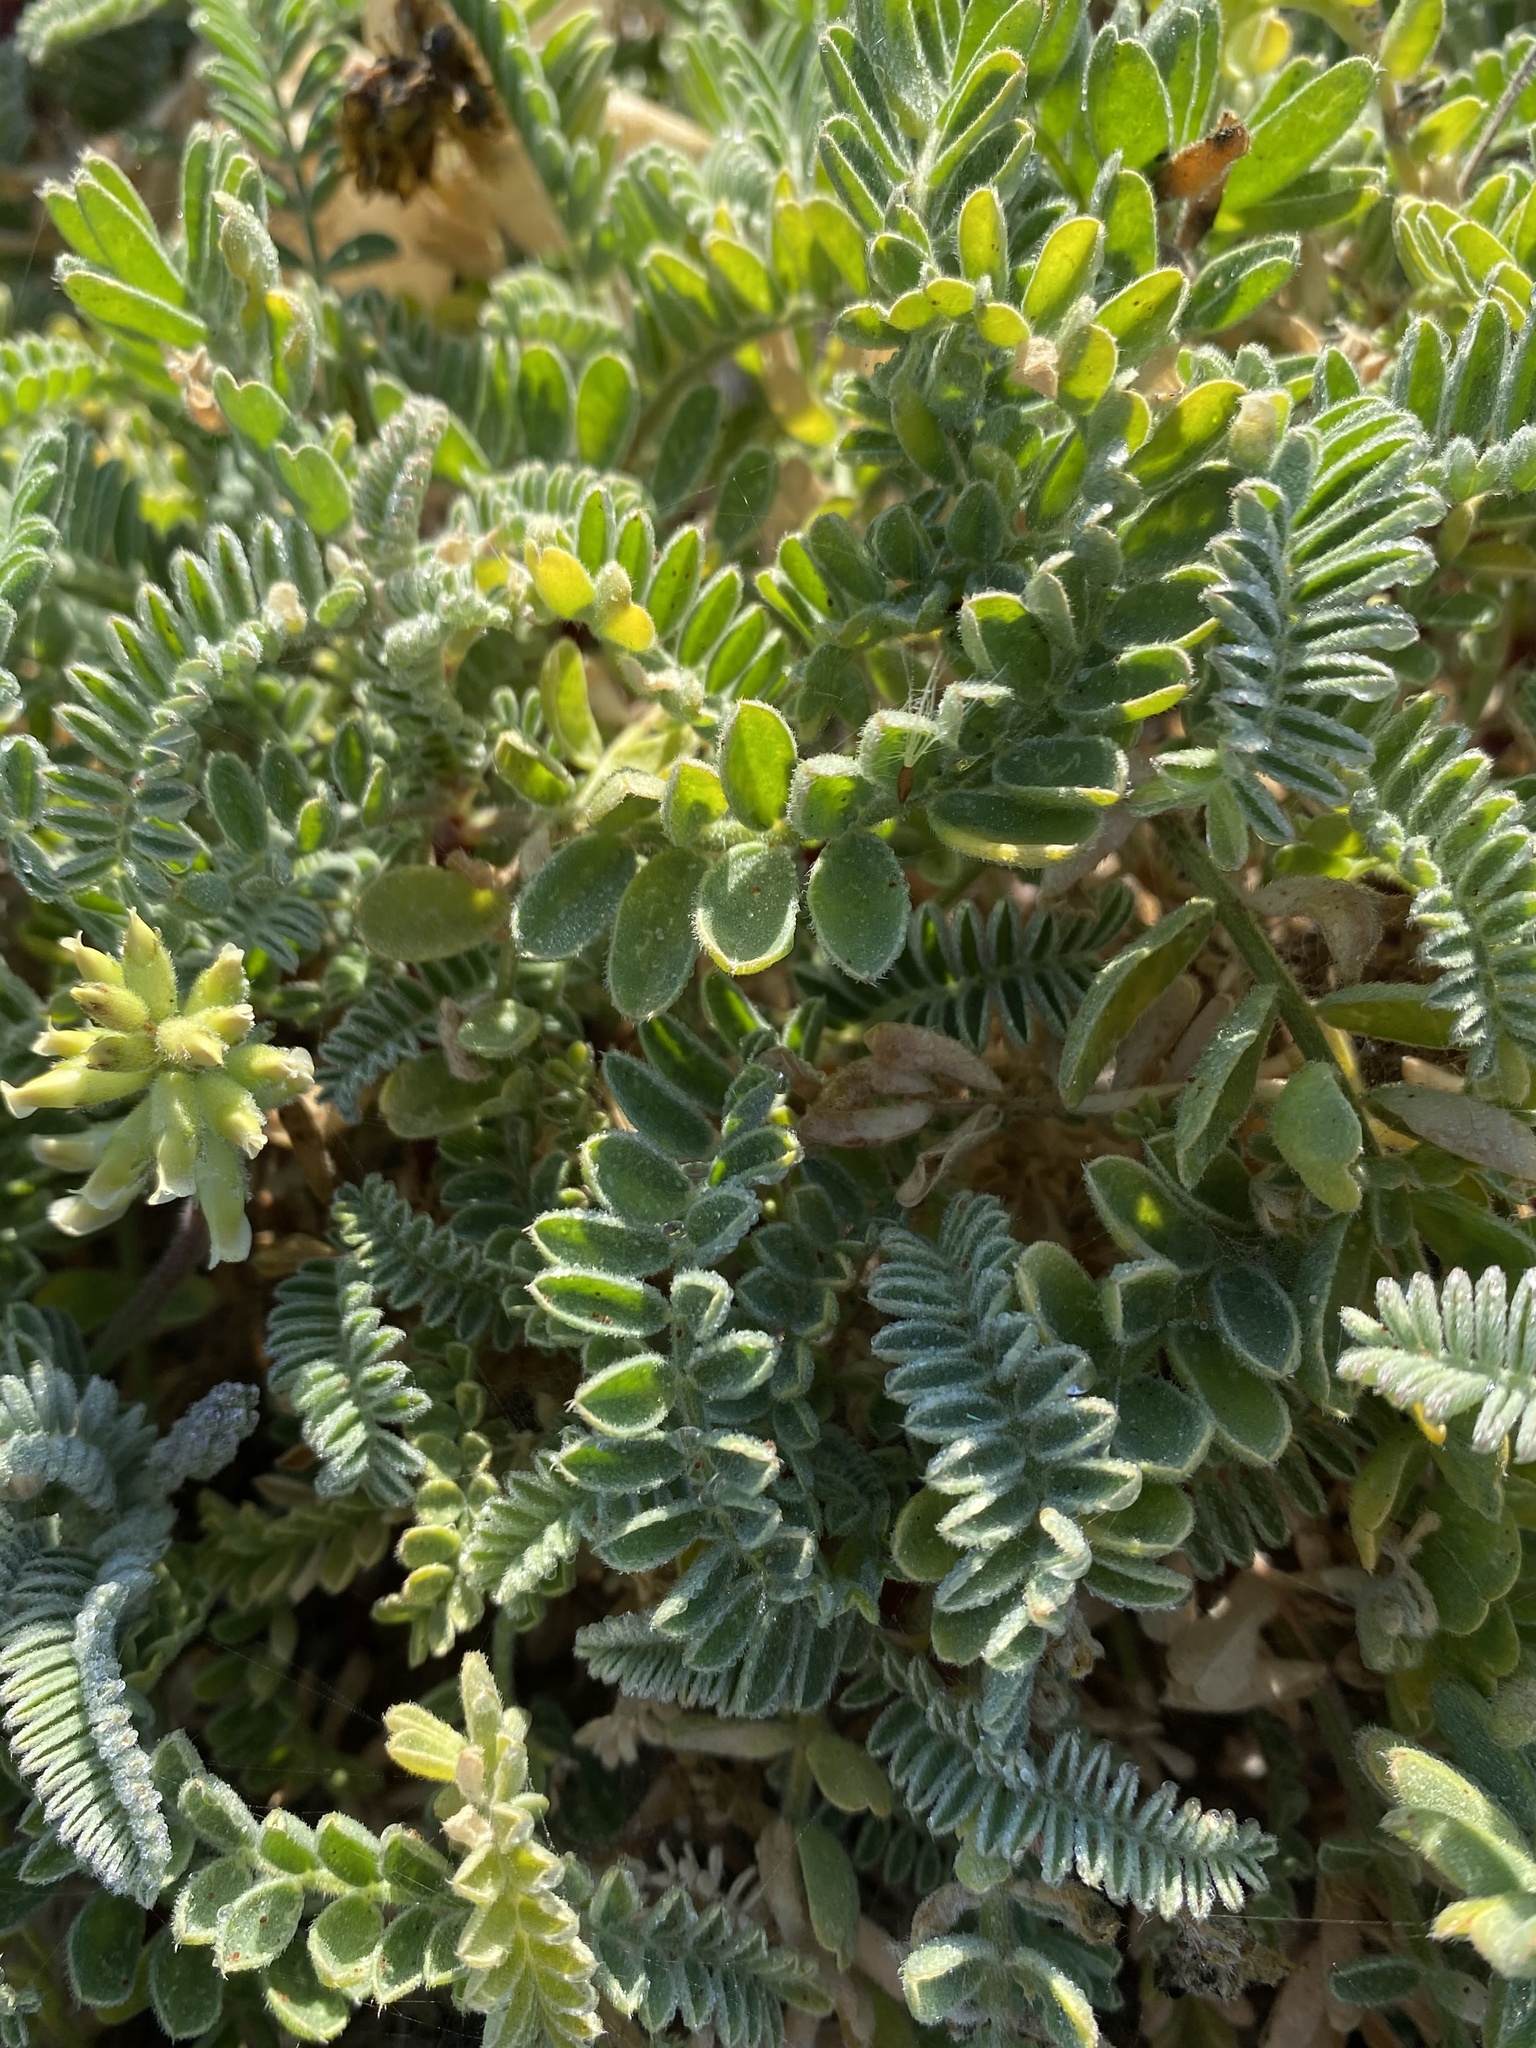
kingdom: Plantae
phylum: Tracheophyta
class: Magnoliopsida
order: Fabales
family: Fabaceae
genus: Astragalus
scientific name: Astragalus nuttallii
